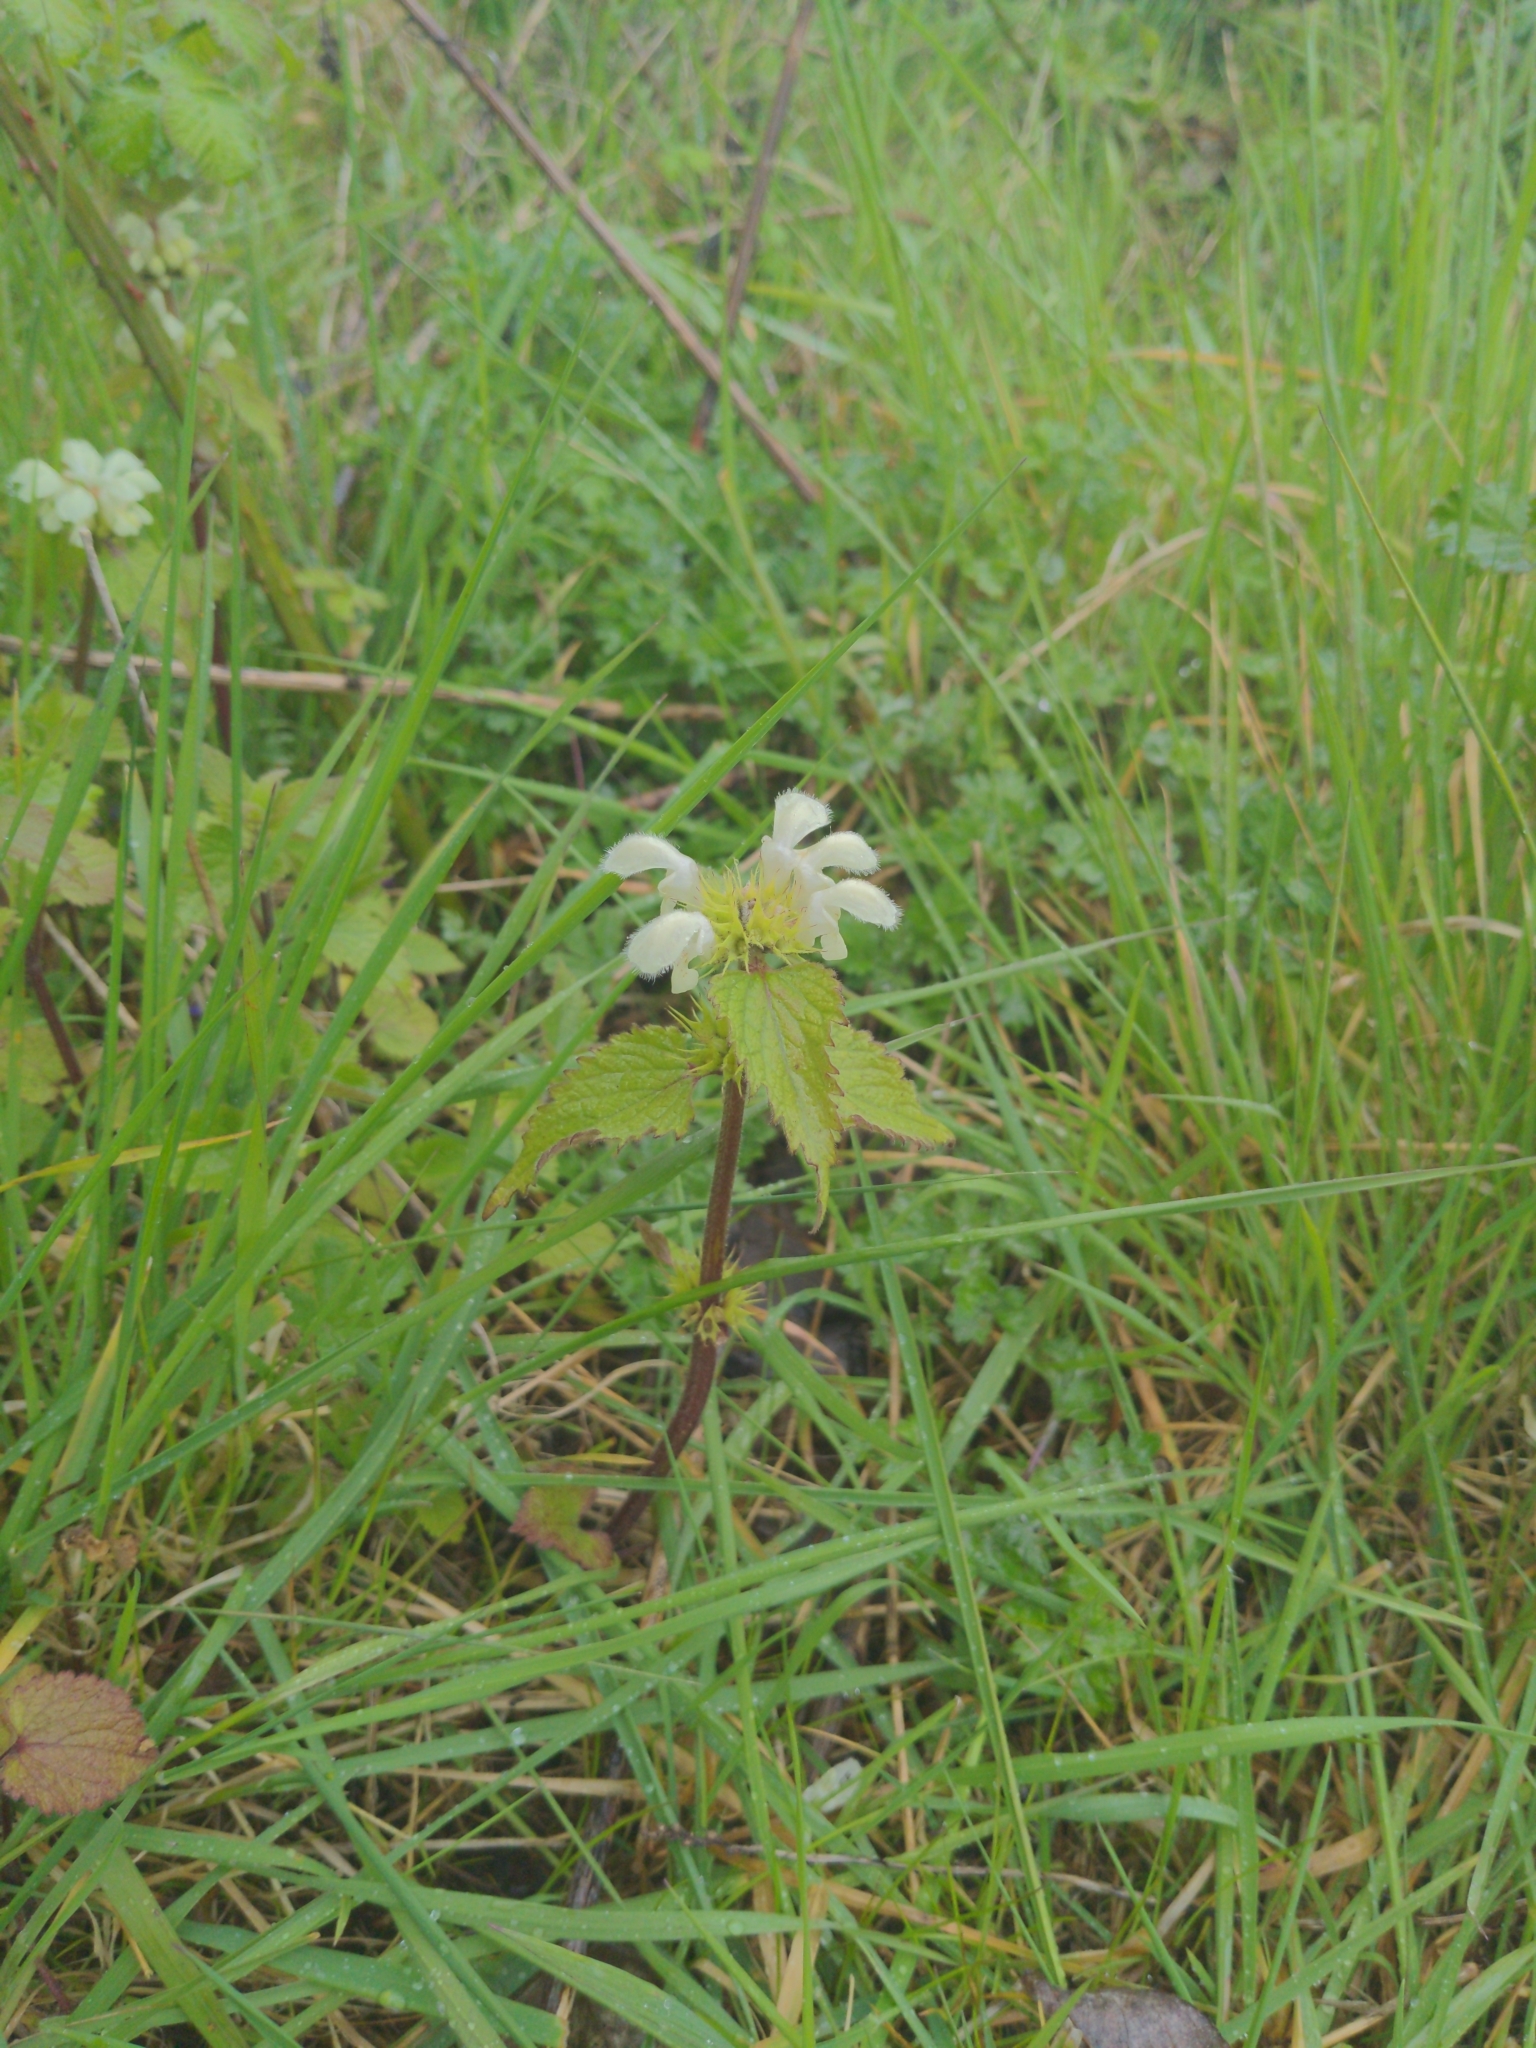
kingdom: Plantae
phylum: Tracheophyta
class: Magnoliopsida
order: Lamiales
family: Lamiaceae
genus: Lamium
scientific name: Lamium album
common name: White dead-nettle
